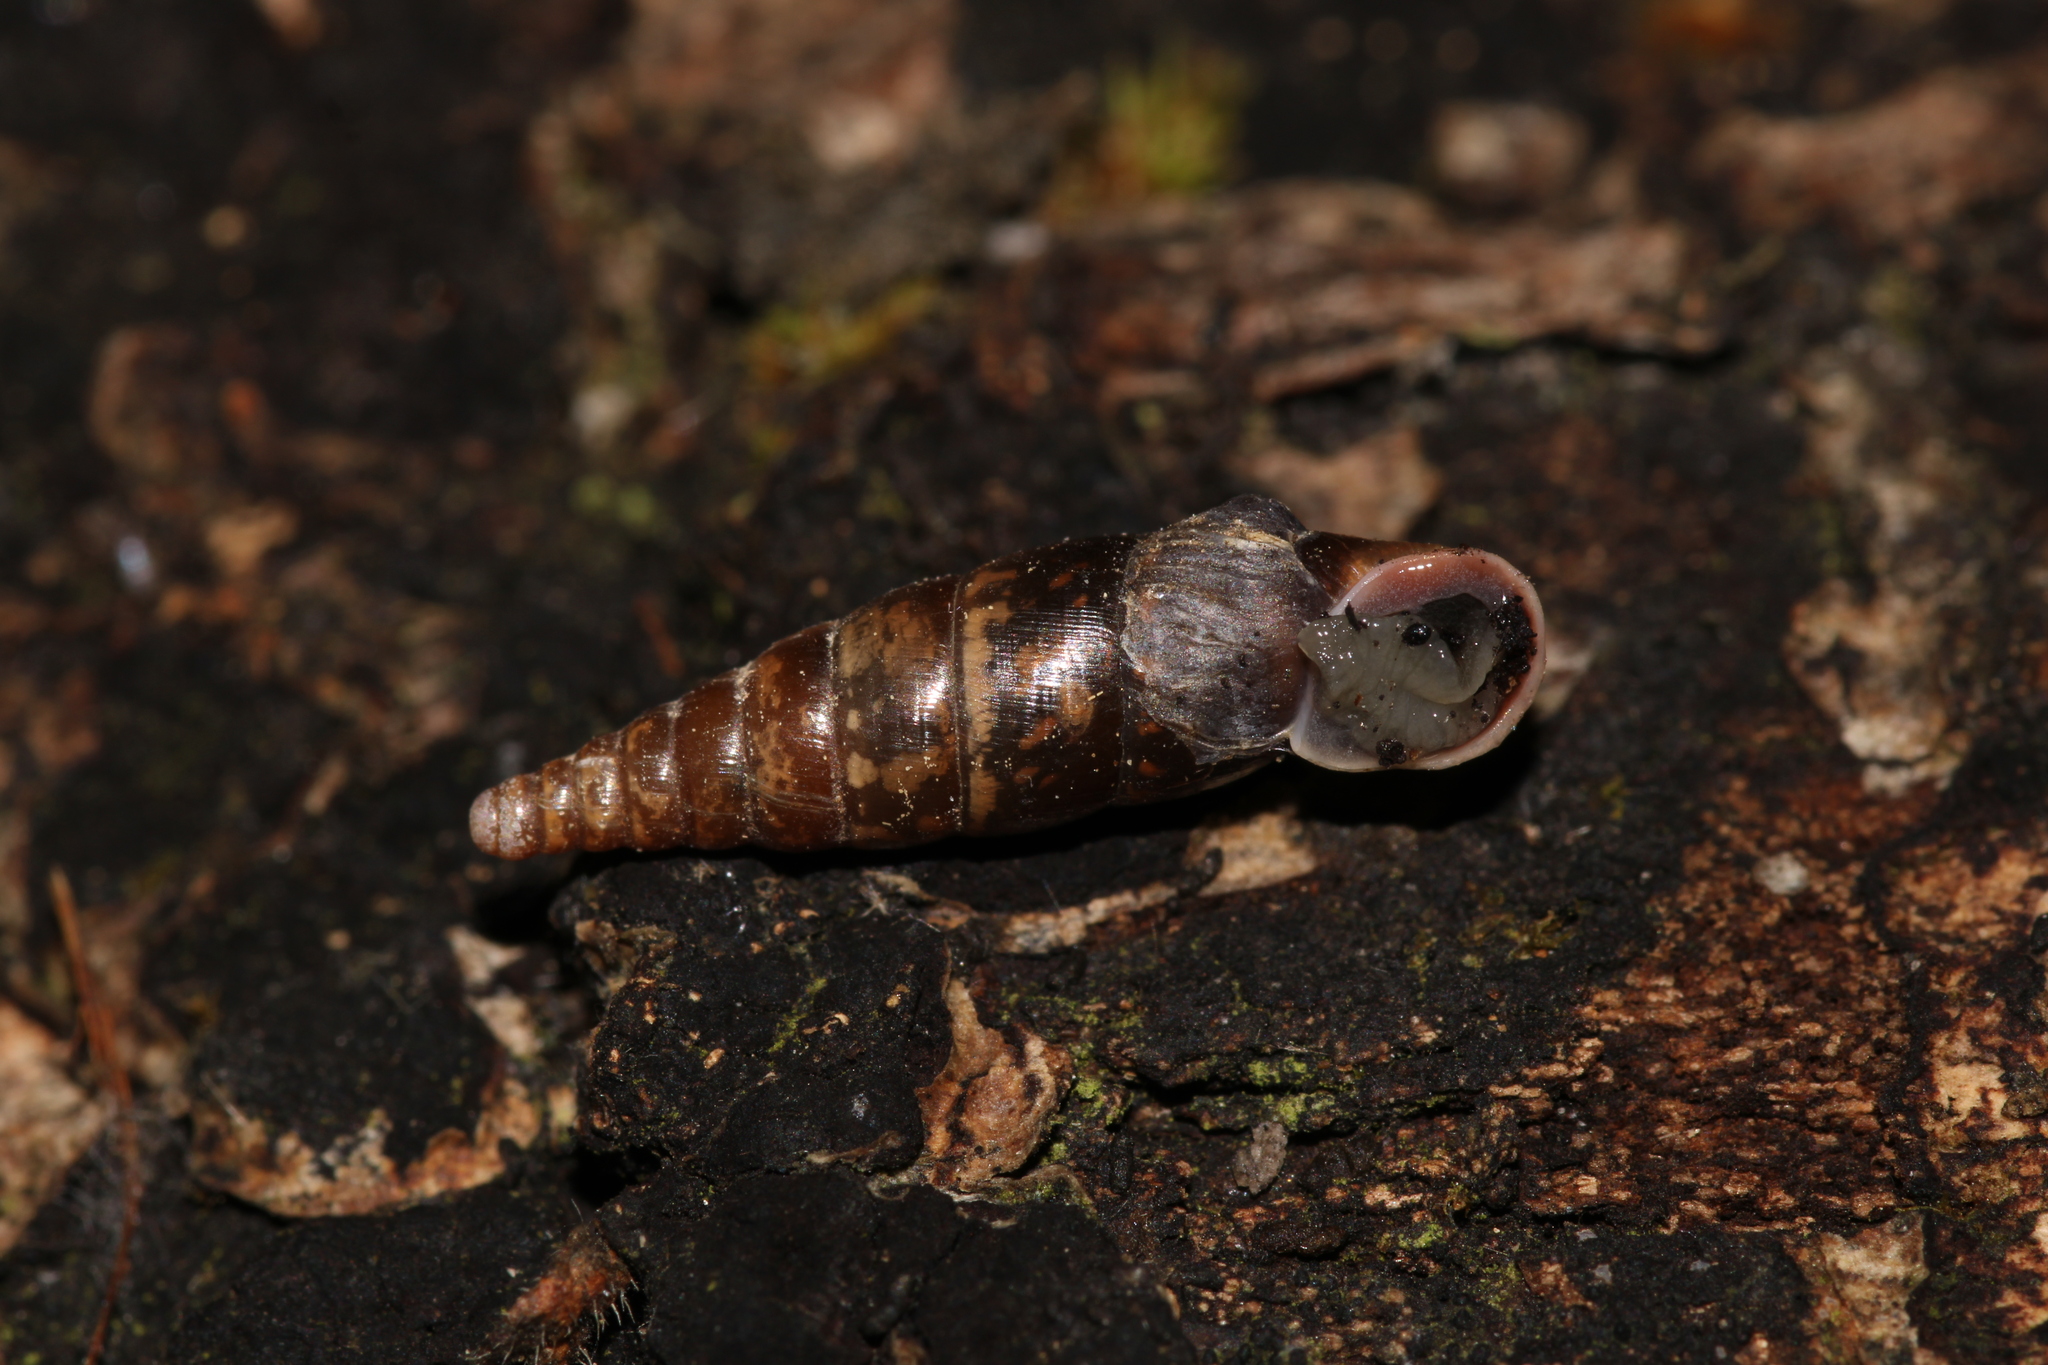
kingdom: Animalia
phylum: Mollusca
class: Gastropoda
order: Stylommatophora
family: Clausiliidae
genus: Cochlodina
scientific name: Cochlodina laminata
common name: Plaited door snail
